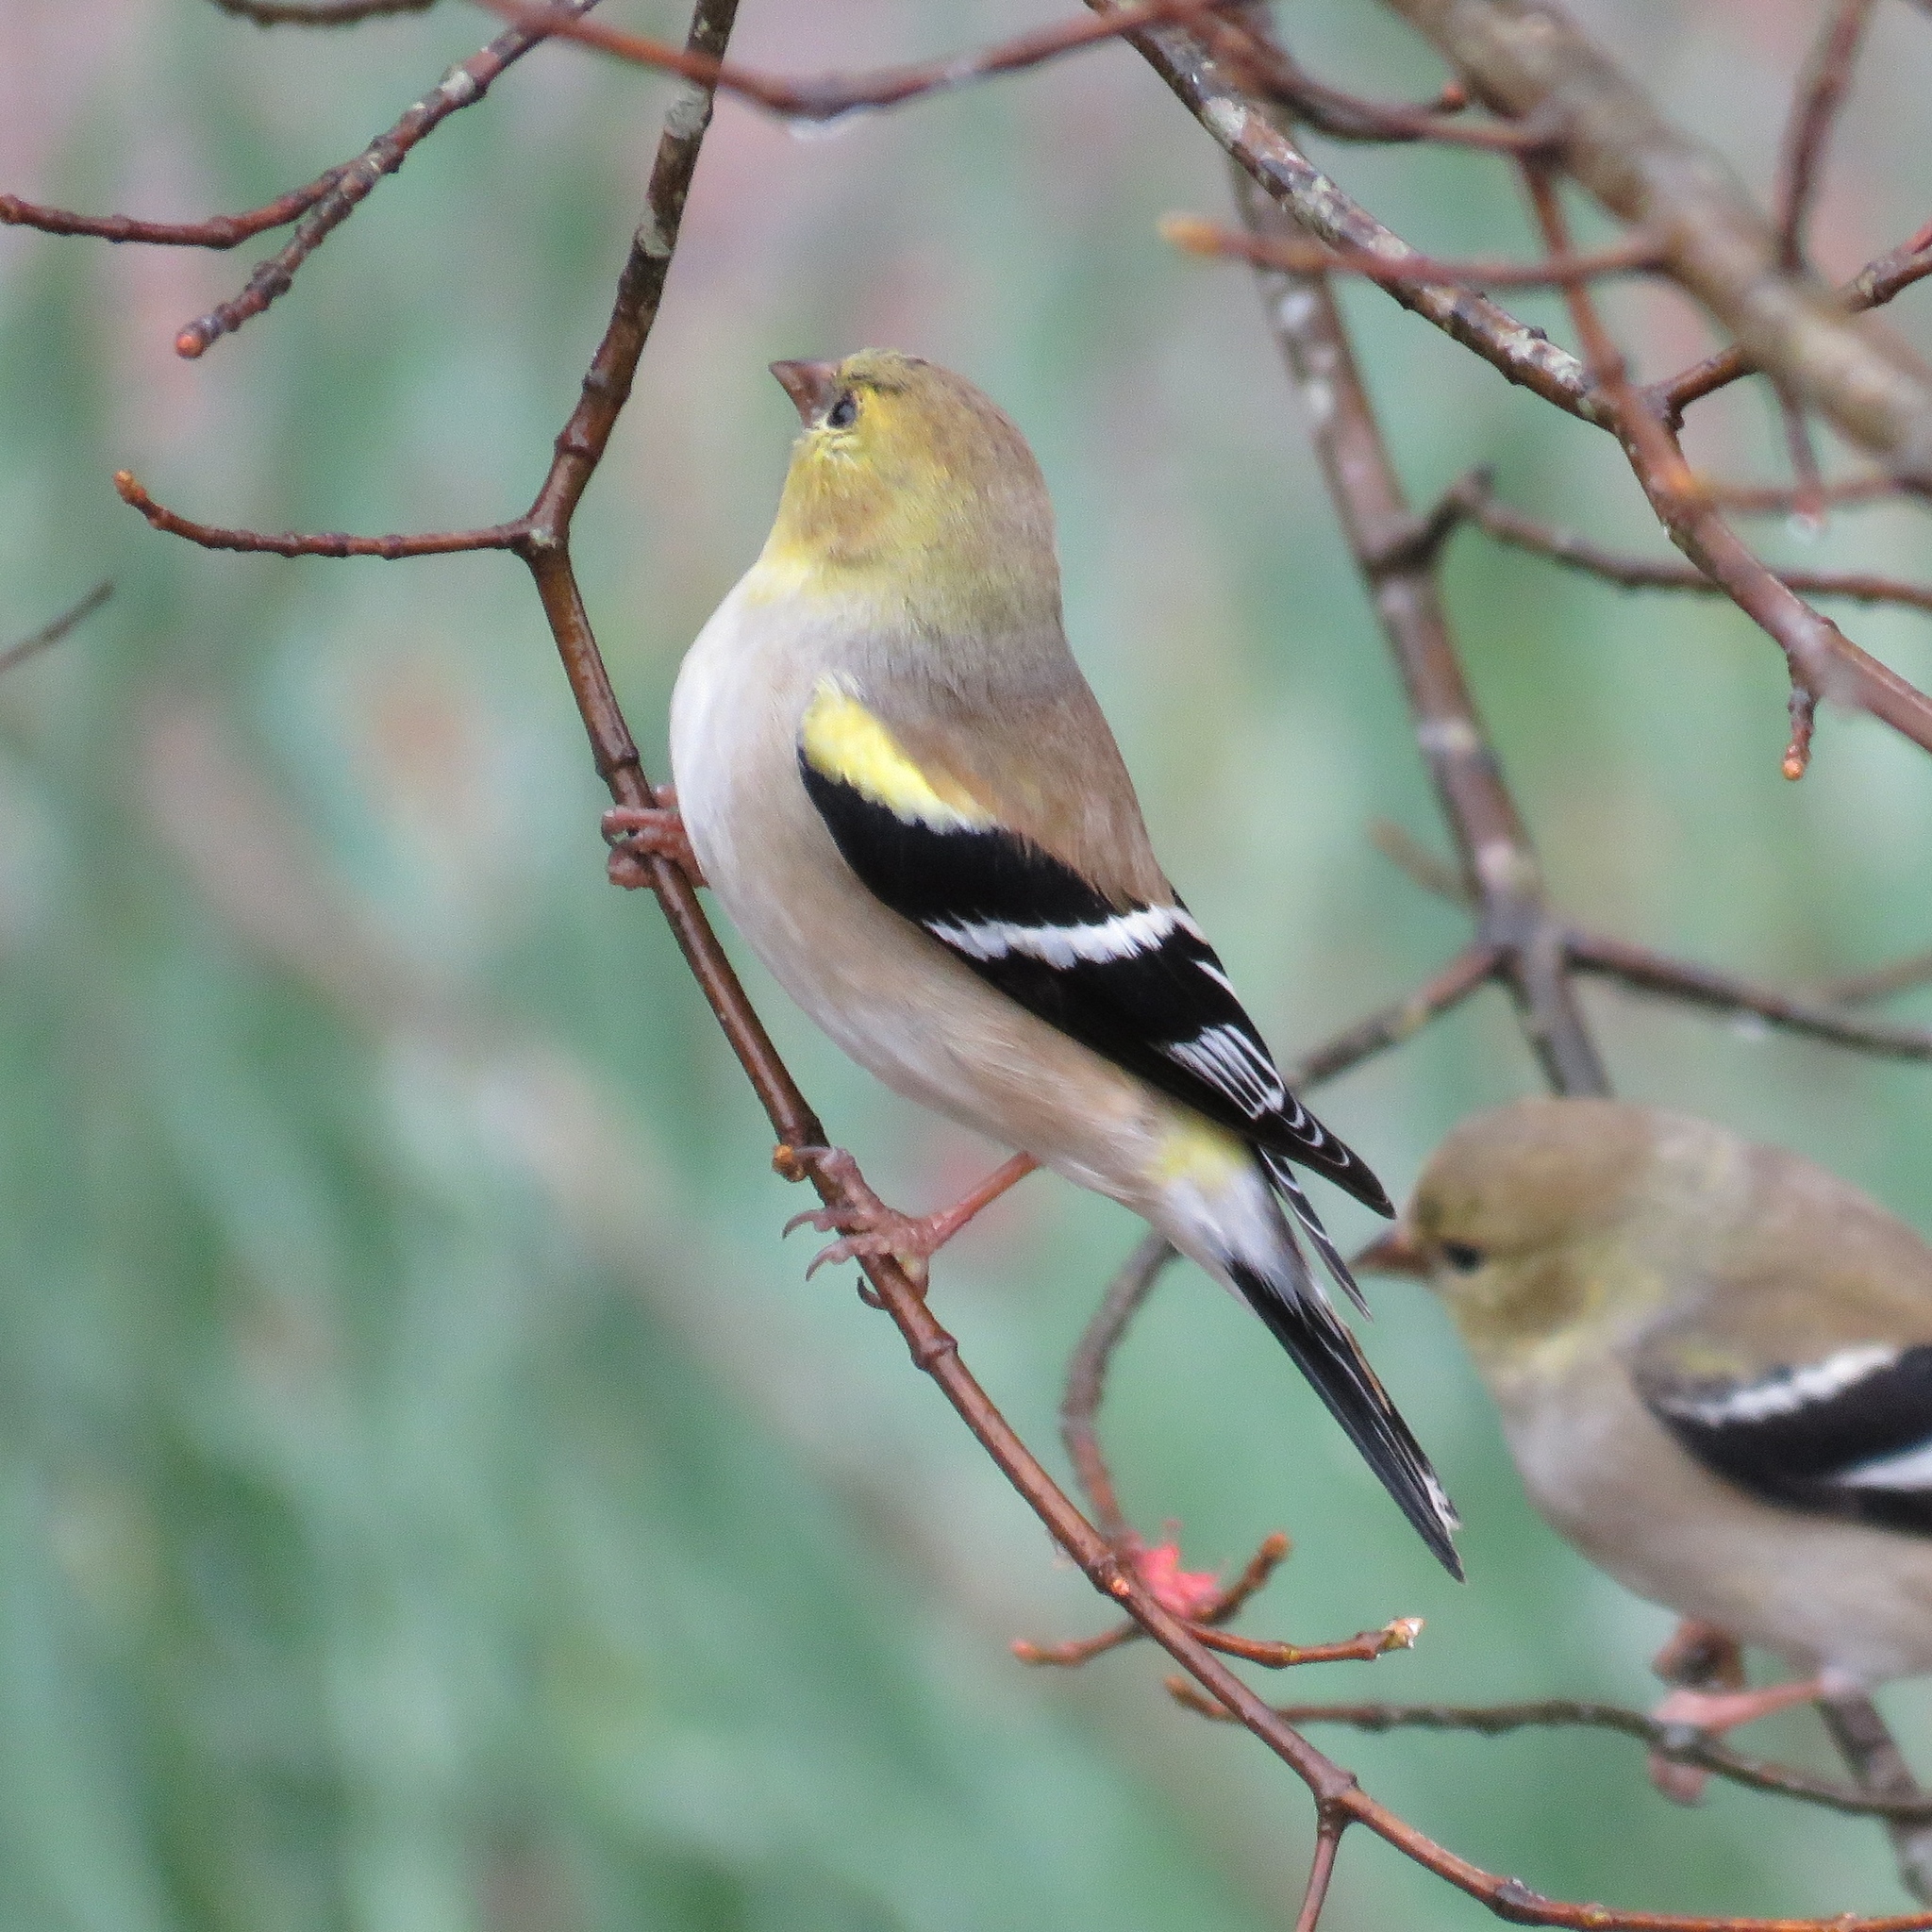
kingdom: Animalia
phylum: Chordata
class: Aves
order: Passeriformes
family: Fringillidae
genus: Spinus
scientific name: Spinus tristis
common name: American goldfinch
